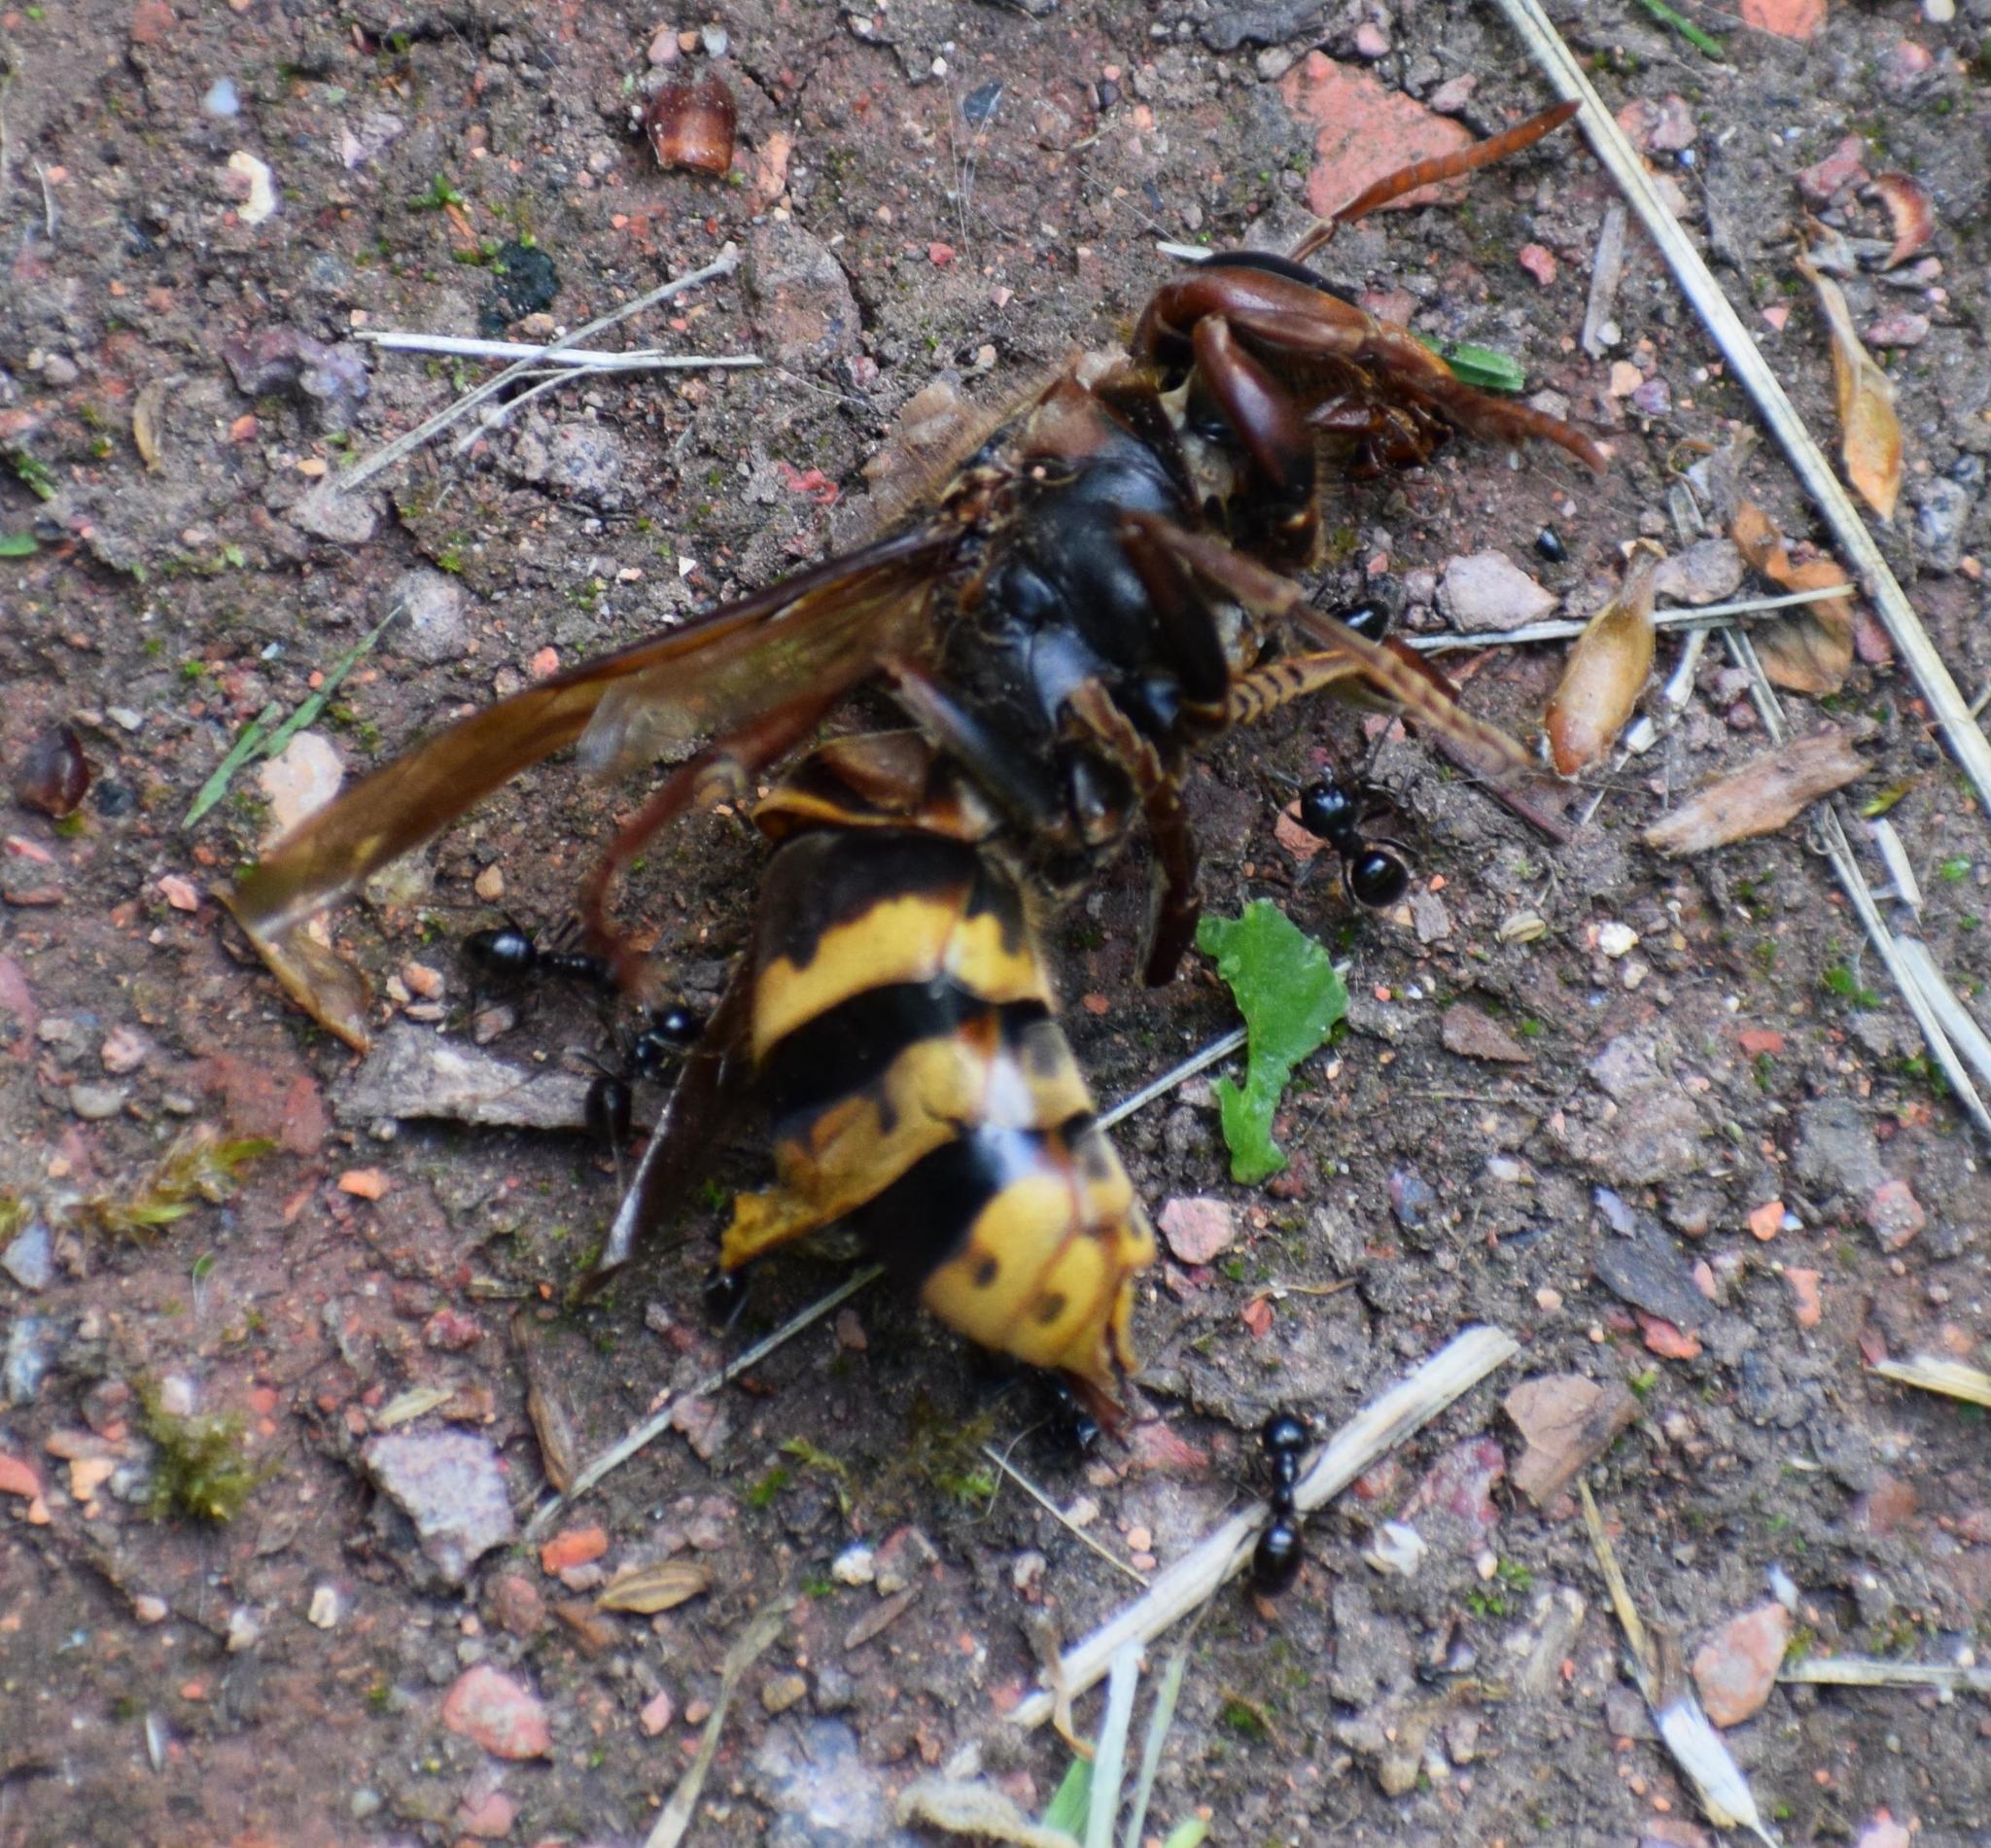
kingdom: Animalia
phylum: Arthropoda
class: Insecta
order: Hymenoptera
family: Vespidae
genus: Vespa
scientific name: Vespa crabro
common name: Hornet
